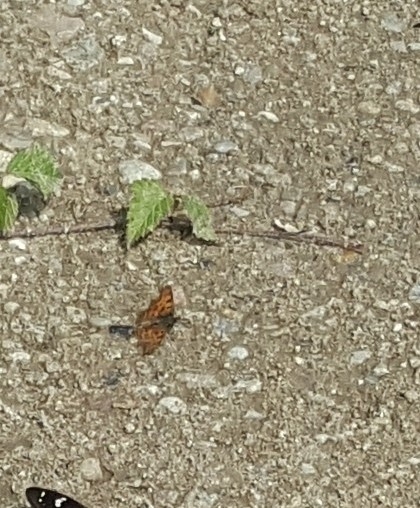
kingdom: Animalia
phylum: Arthropoda
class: Insecta
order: Lepidoptera
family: Nymphalidae
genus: Polygonia
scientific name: Polygonia c-album
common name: Comma
